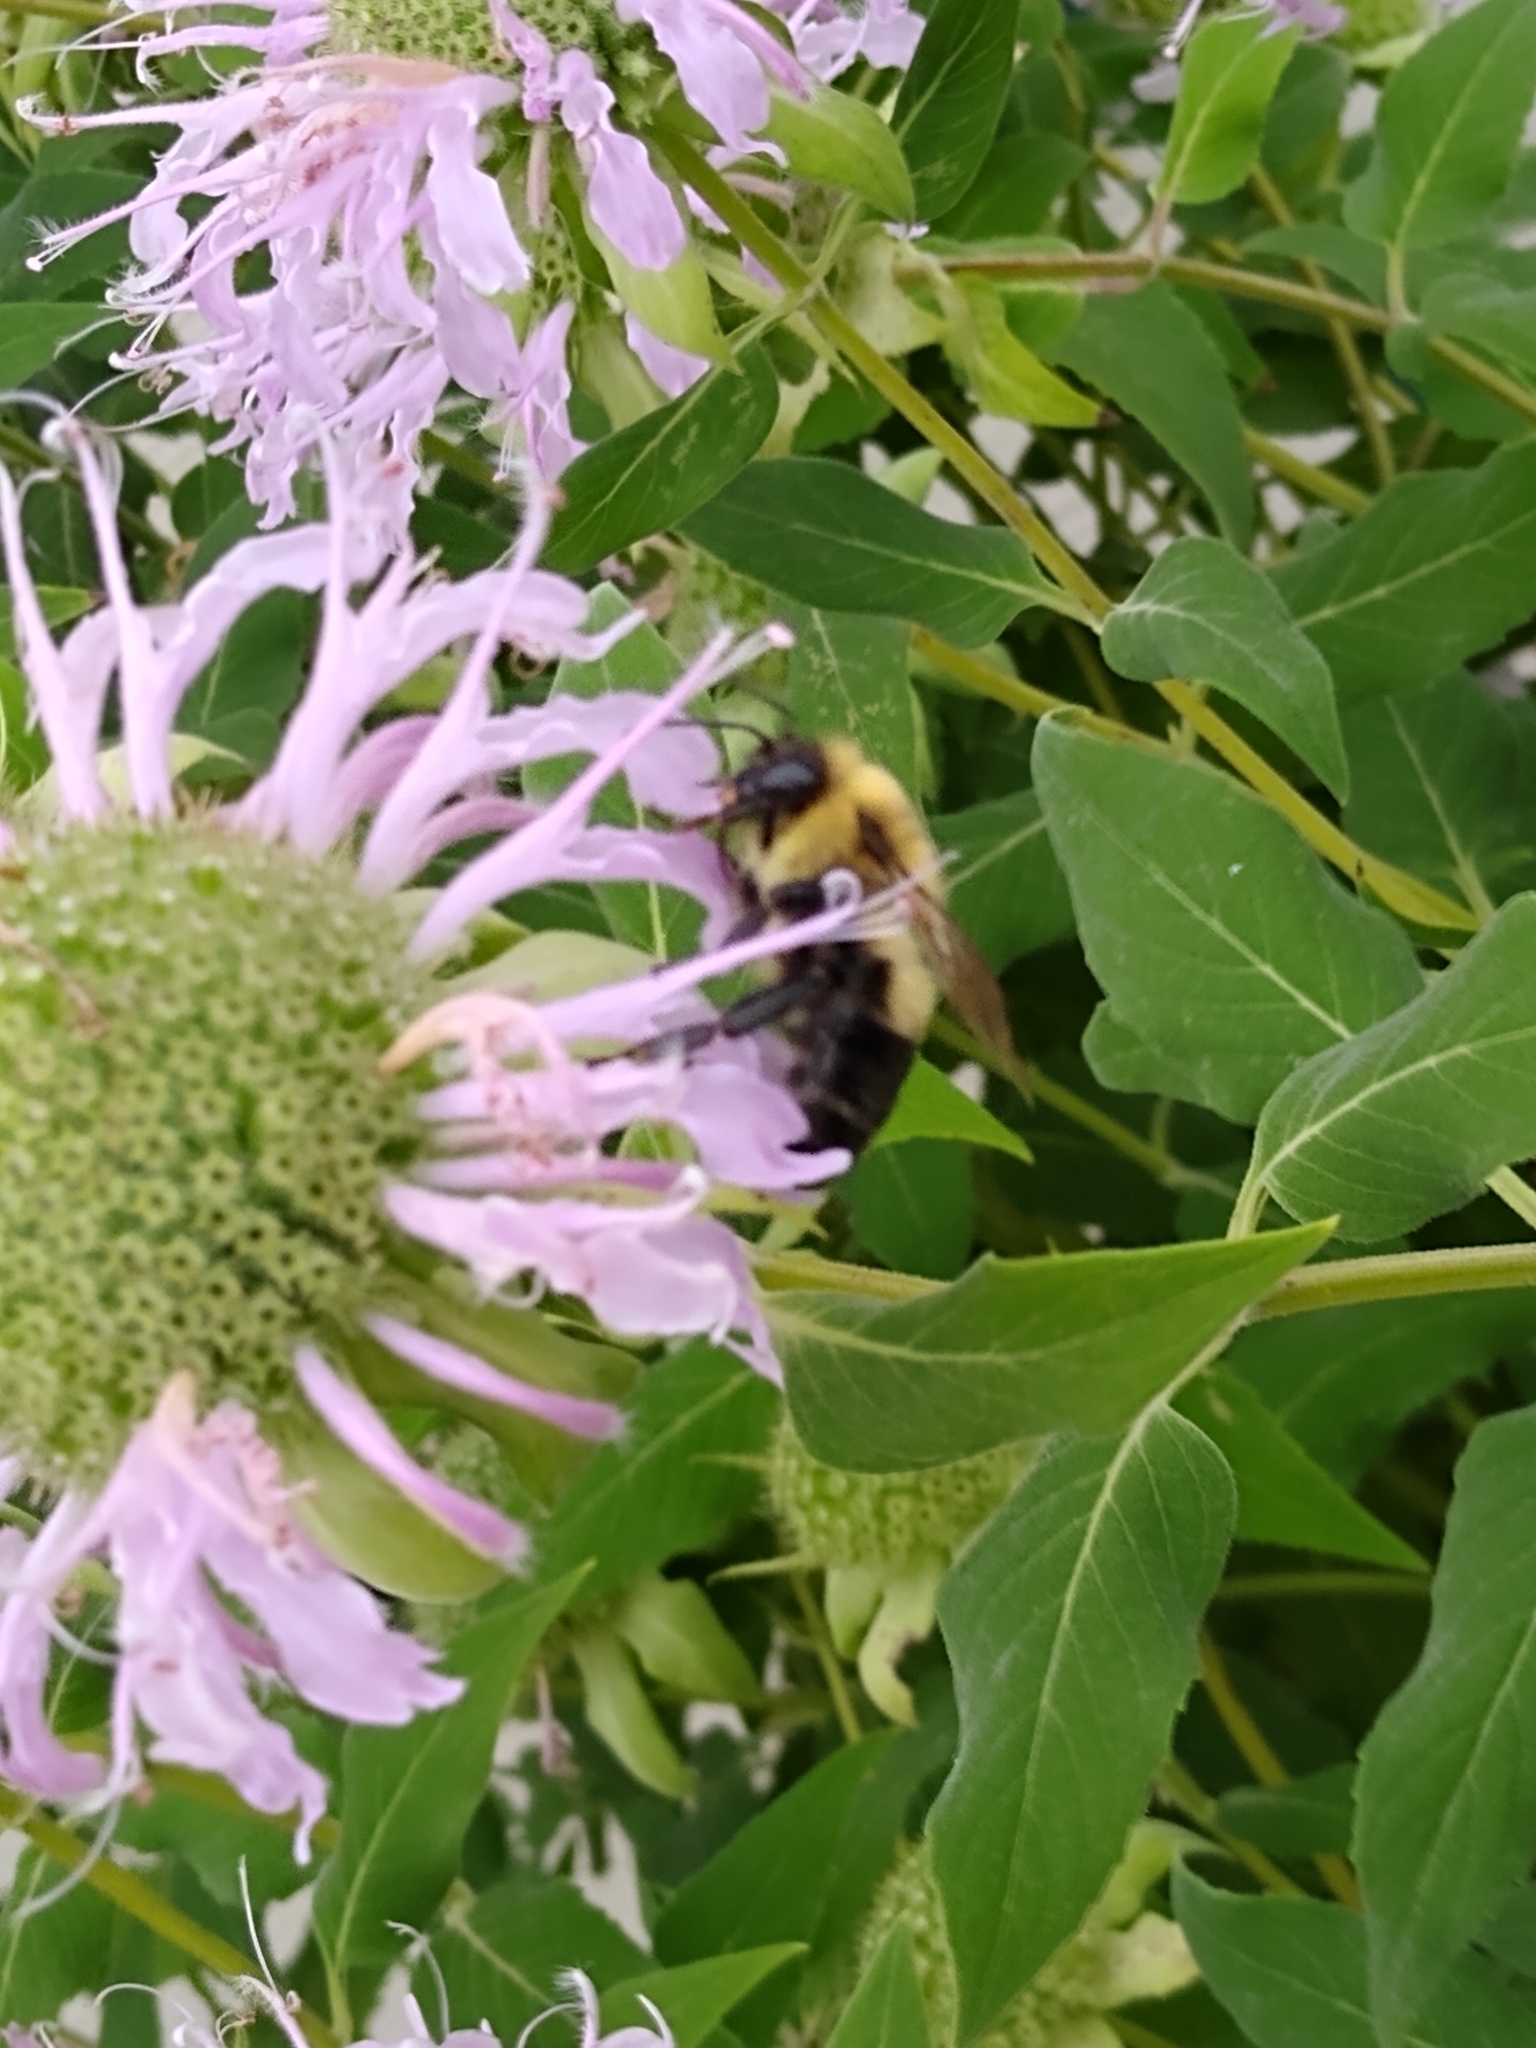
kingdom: Animalia
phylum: Arthropoda
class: Insecta
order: Hymenoptera
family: Apidae
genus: Bombus
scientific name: Bombus bimaculatus
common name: Two-spotted bumble bee
